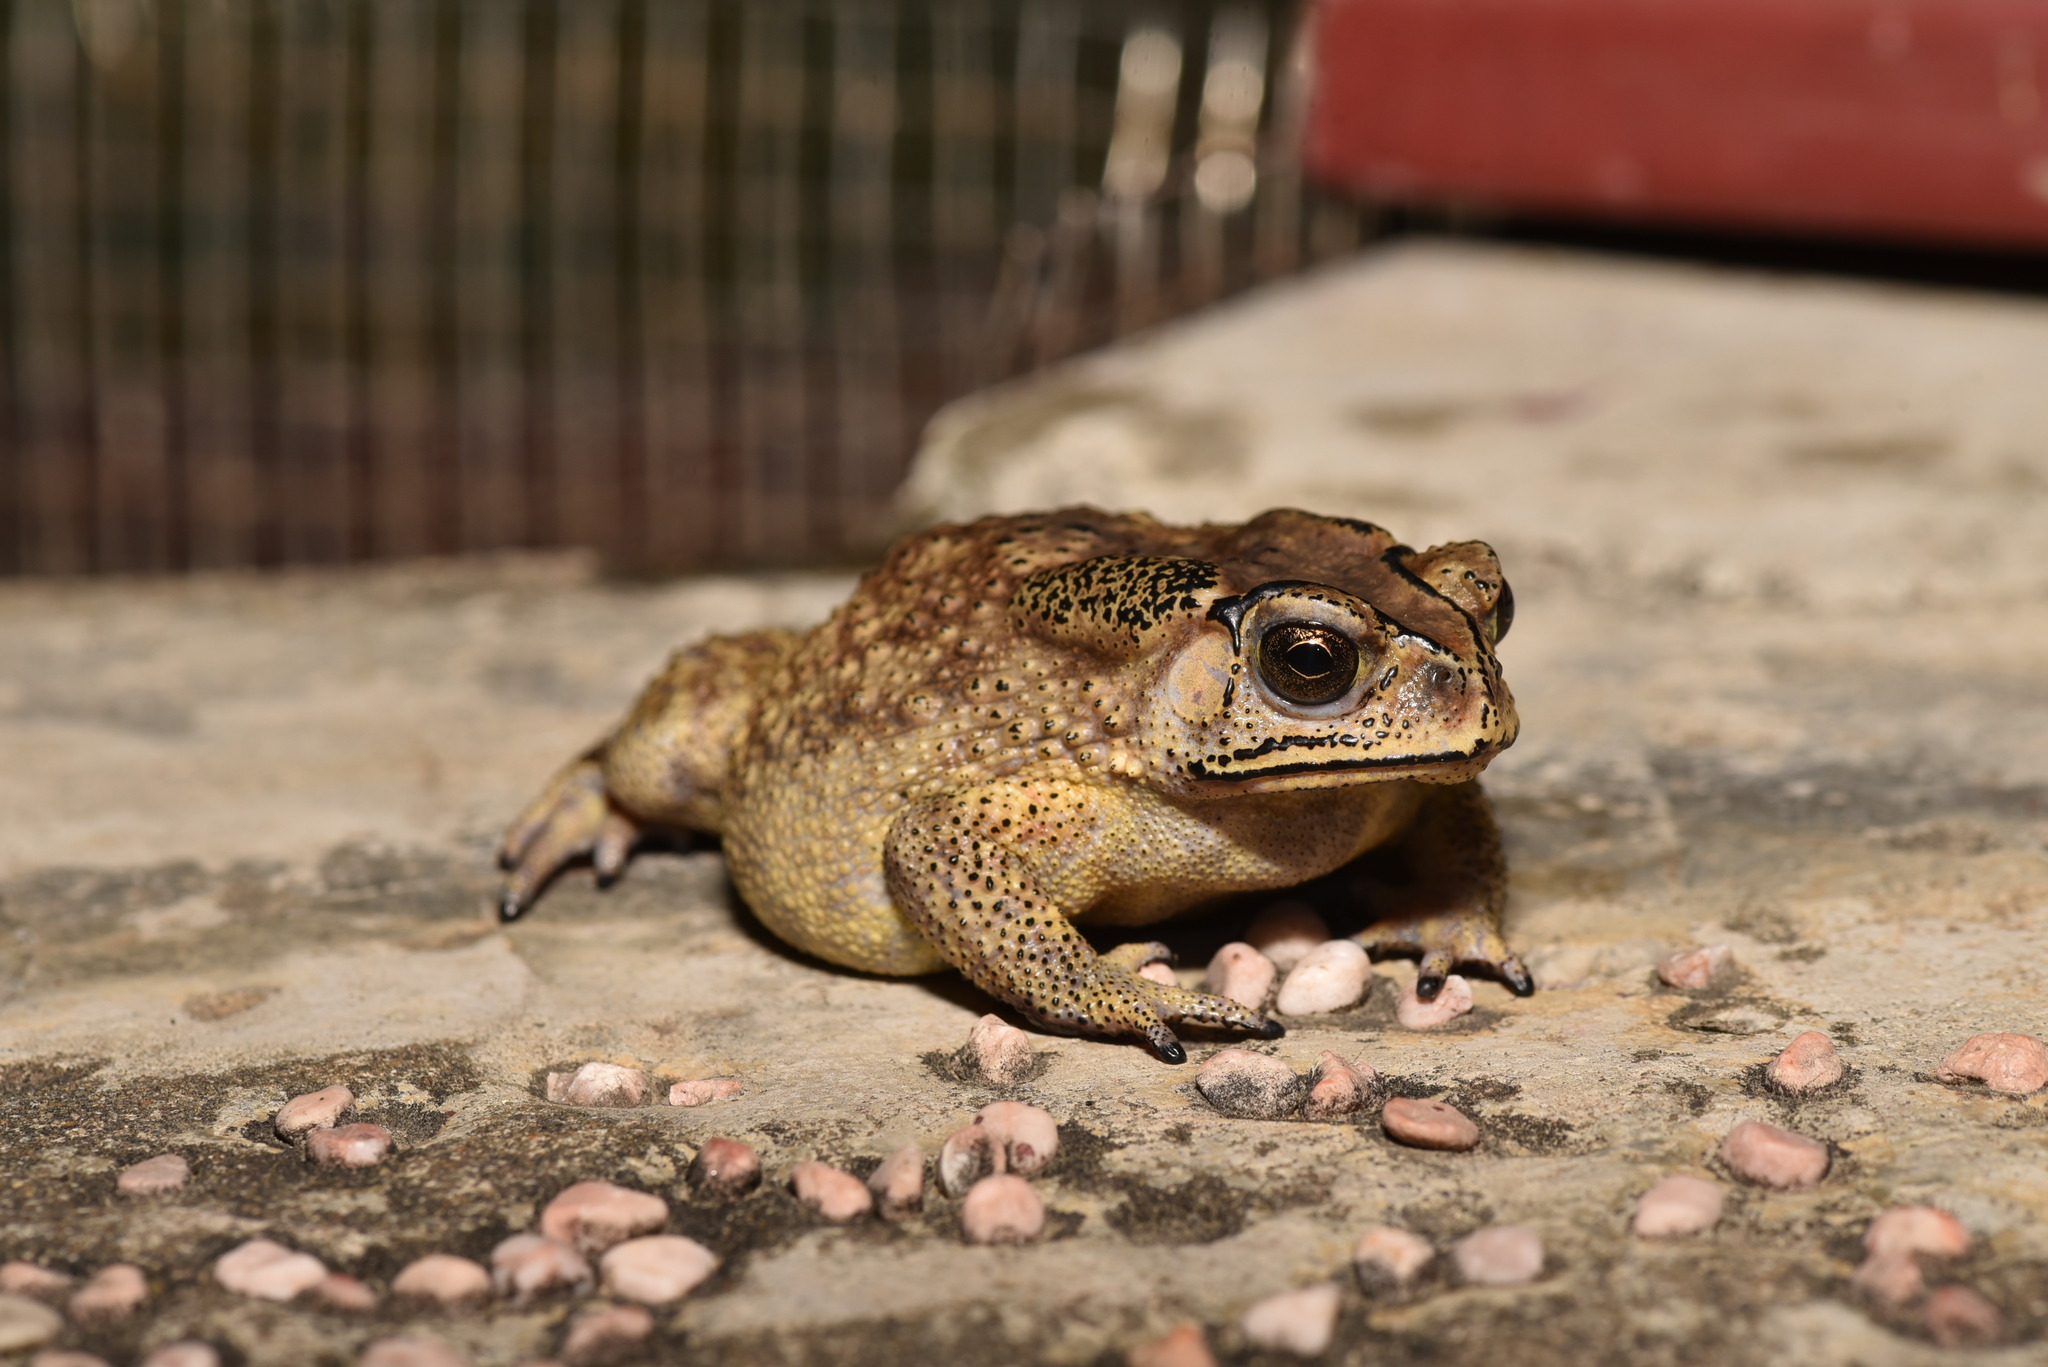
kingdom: Animalia
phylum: Chordata
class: Amphibia
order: Anura
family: Bufonidae
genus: Duttaphrynus
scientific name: Duttaphrynus melanostictus
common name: Common sunda toad
